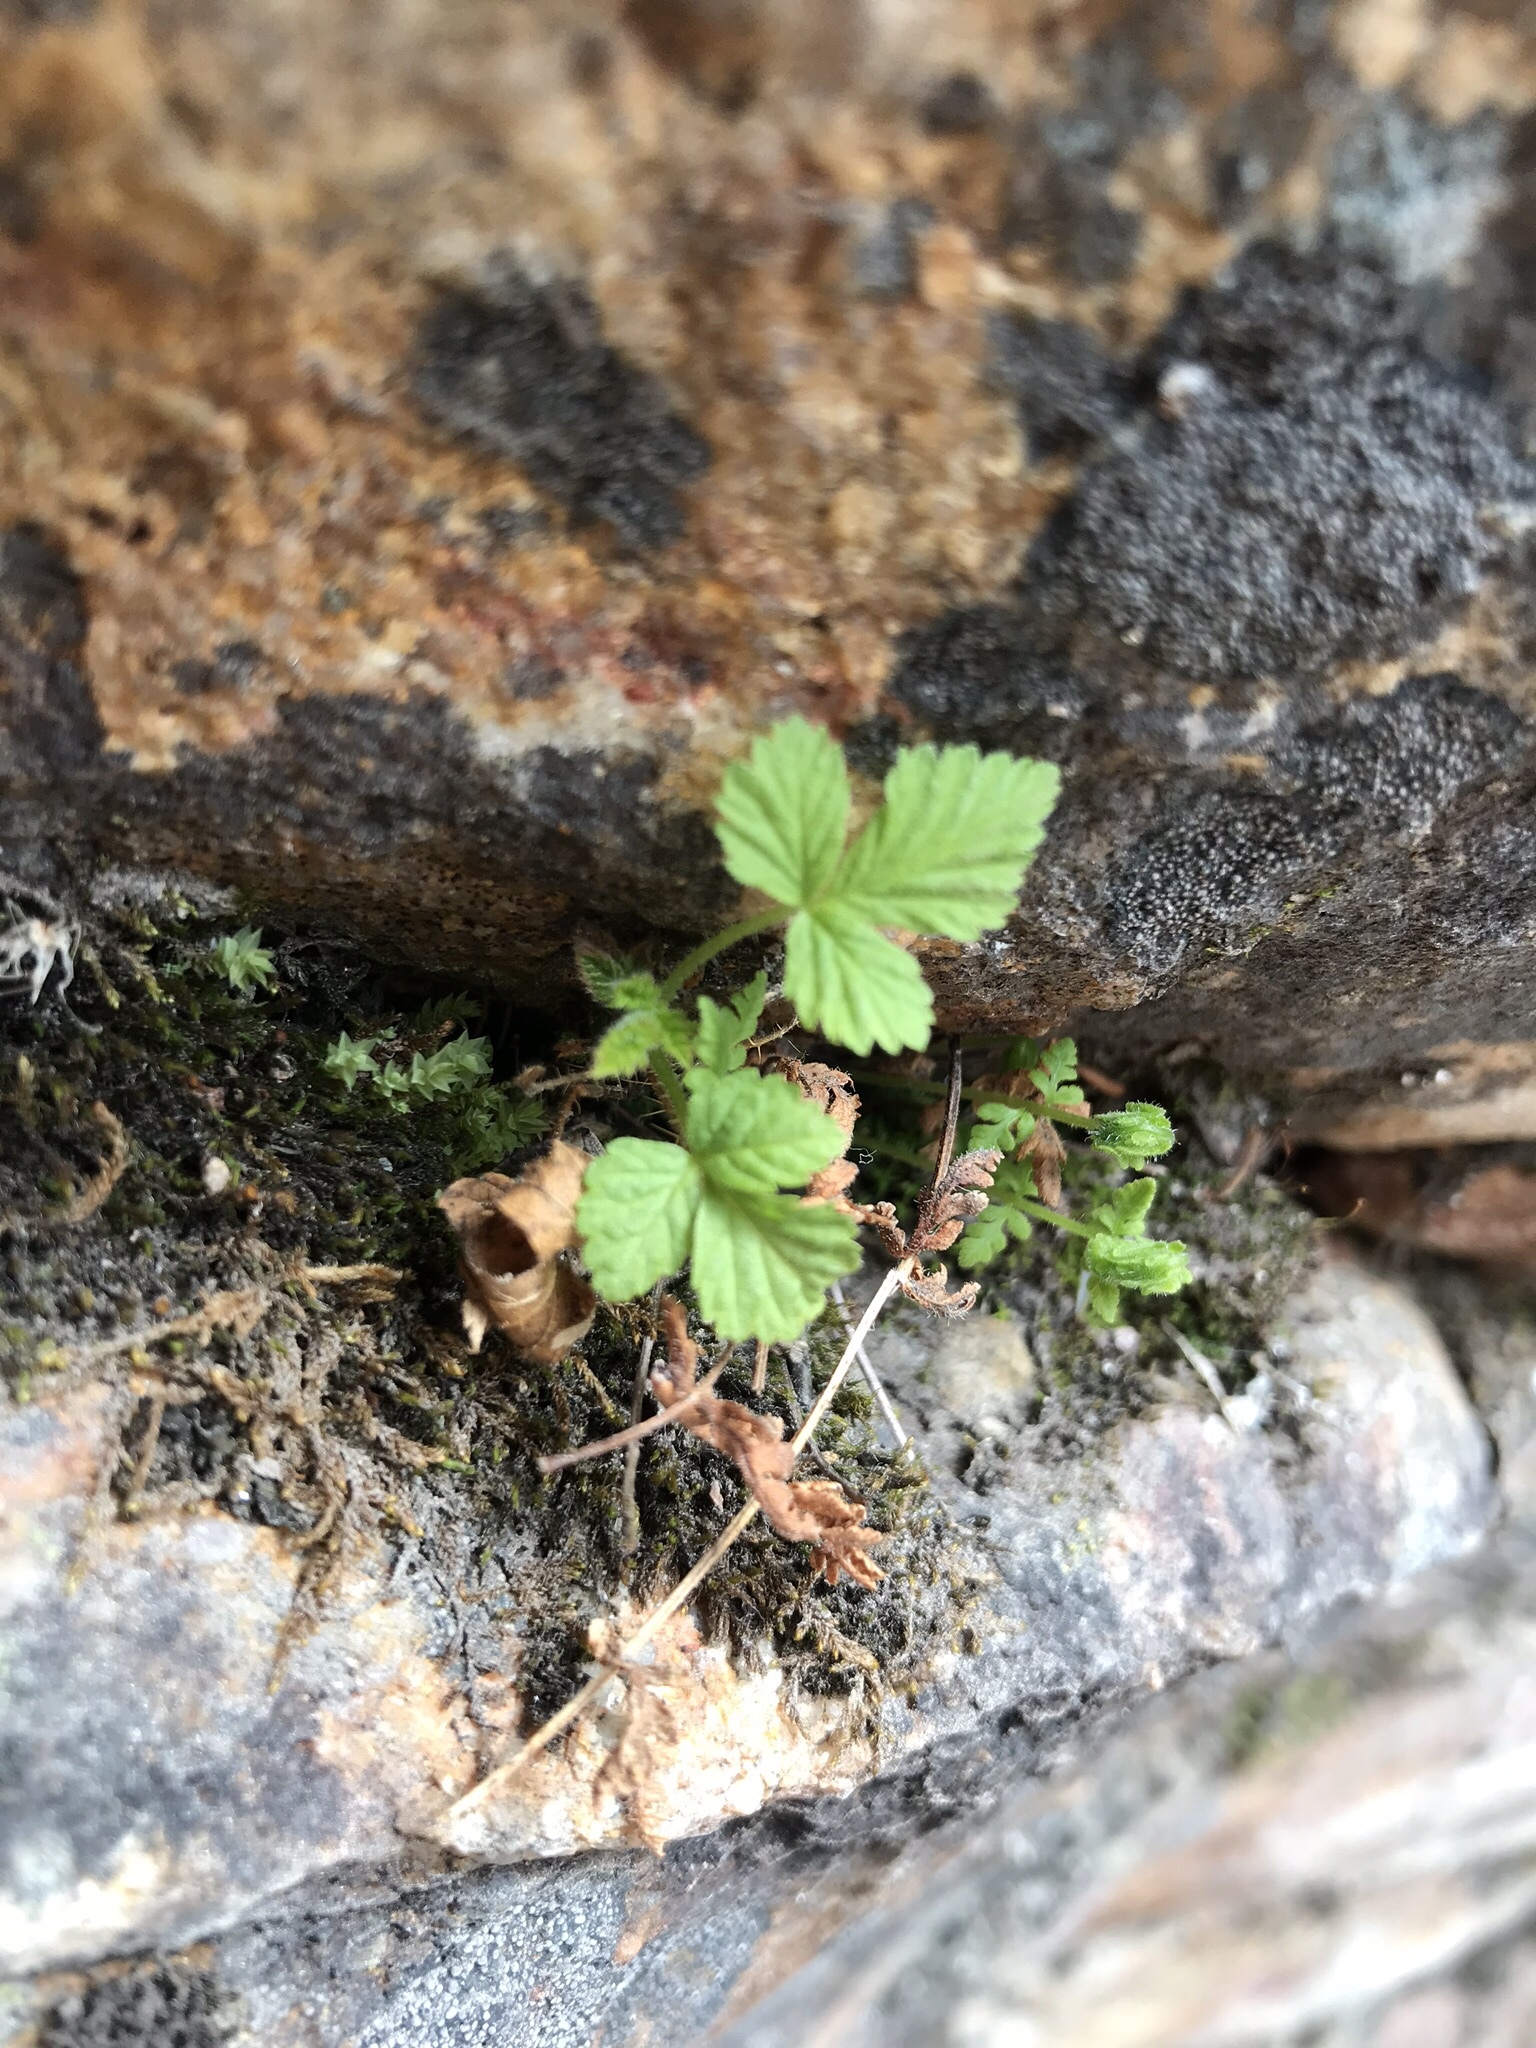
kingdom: Plantae
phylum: Tracheophyta
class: Magnoliopsida
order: Rosales
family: Rosaceae
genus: Rubus
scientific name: Rubus pubescens
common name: Dwarf raspberry
